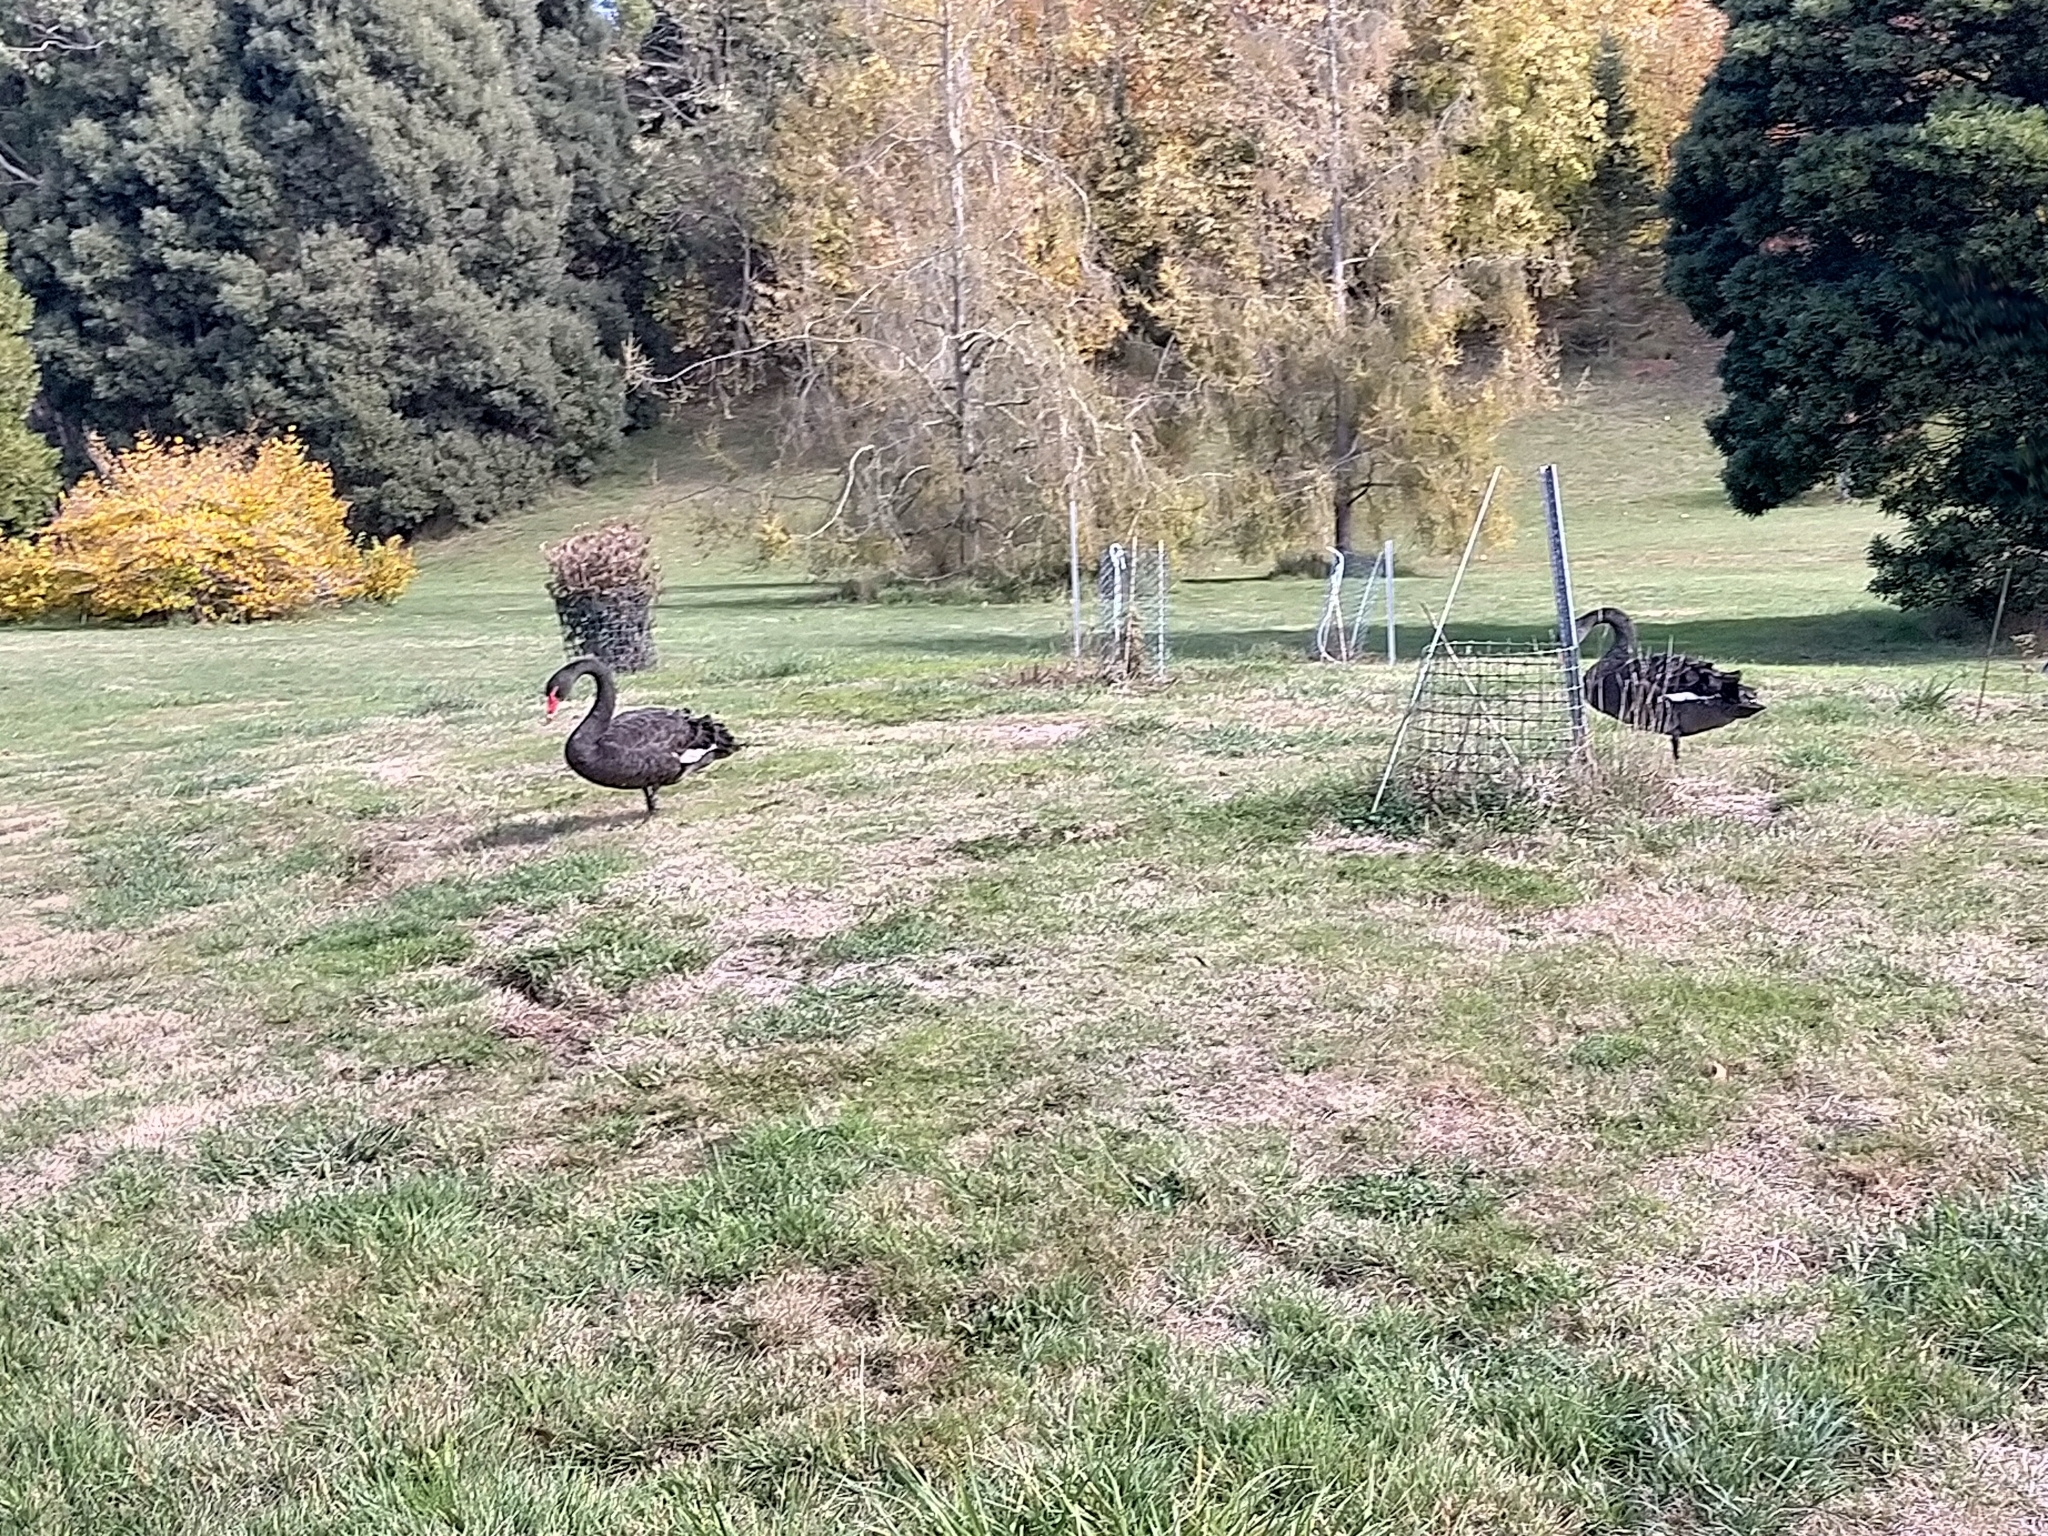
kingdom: Animalia
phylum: Chordata
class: Aves
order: Anseriformes
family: Anatidae
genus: Cygnus
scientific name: Cygnus atratus
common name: Black swan
